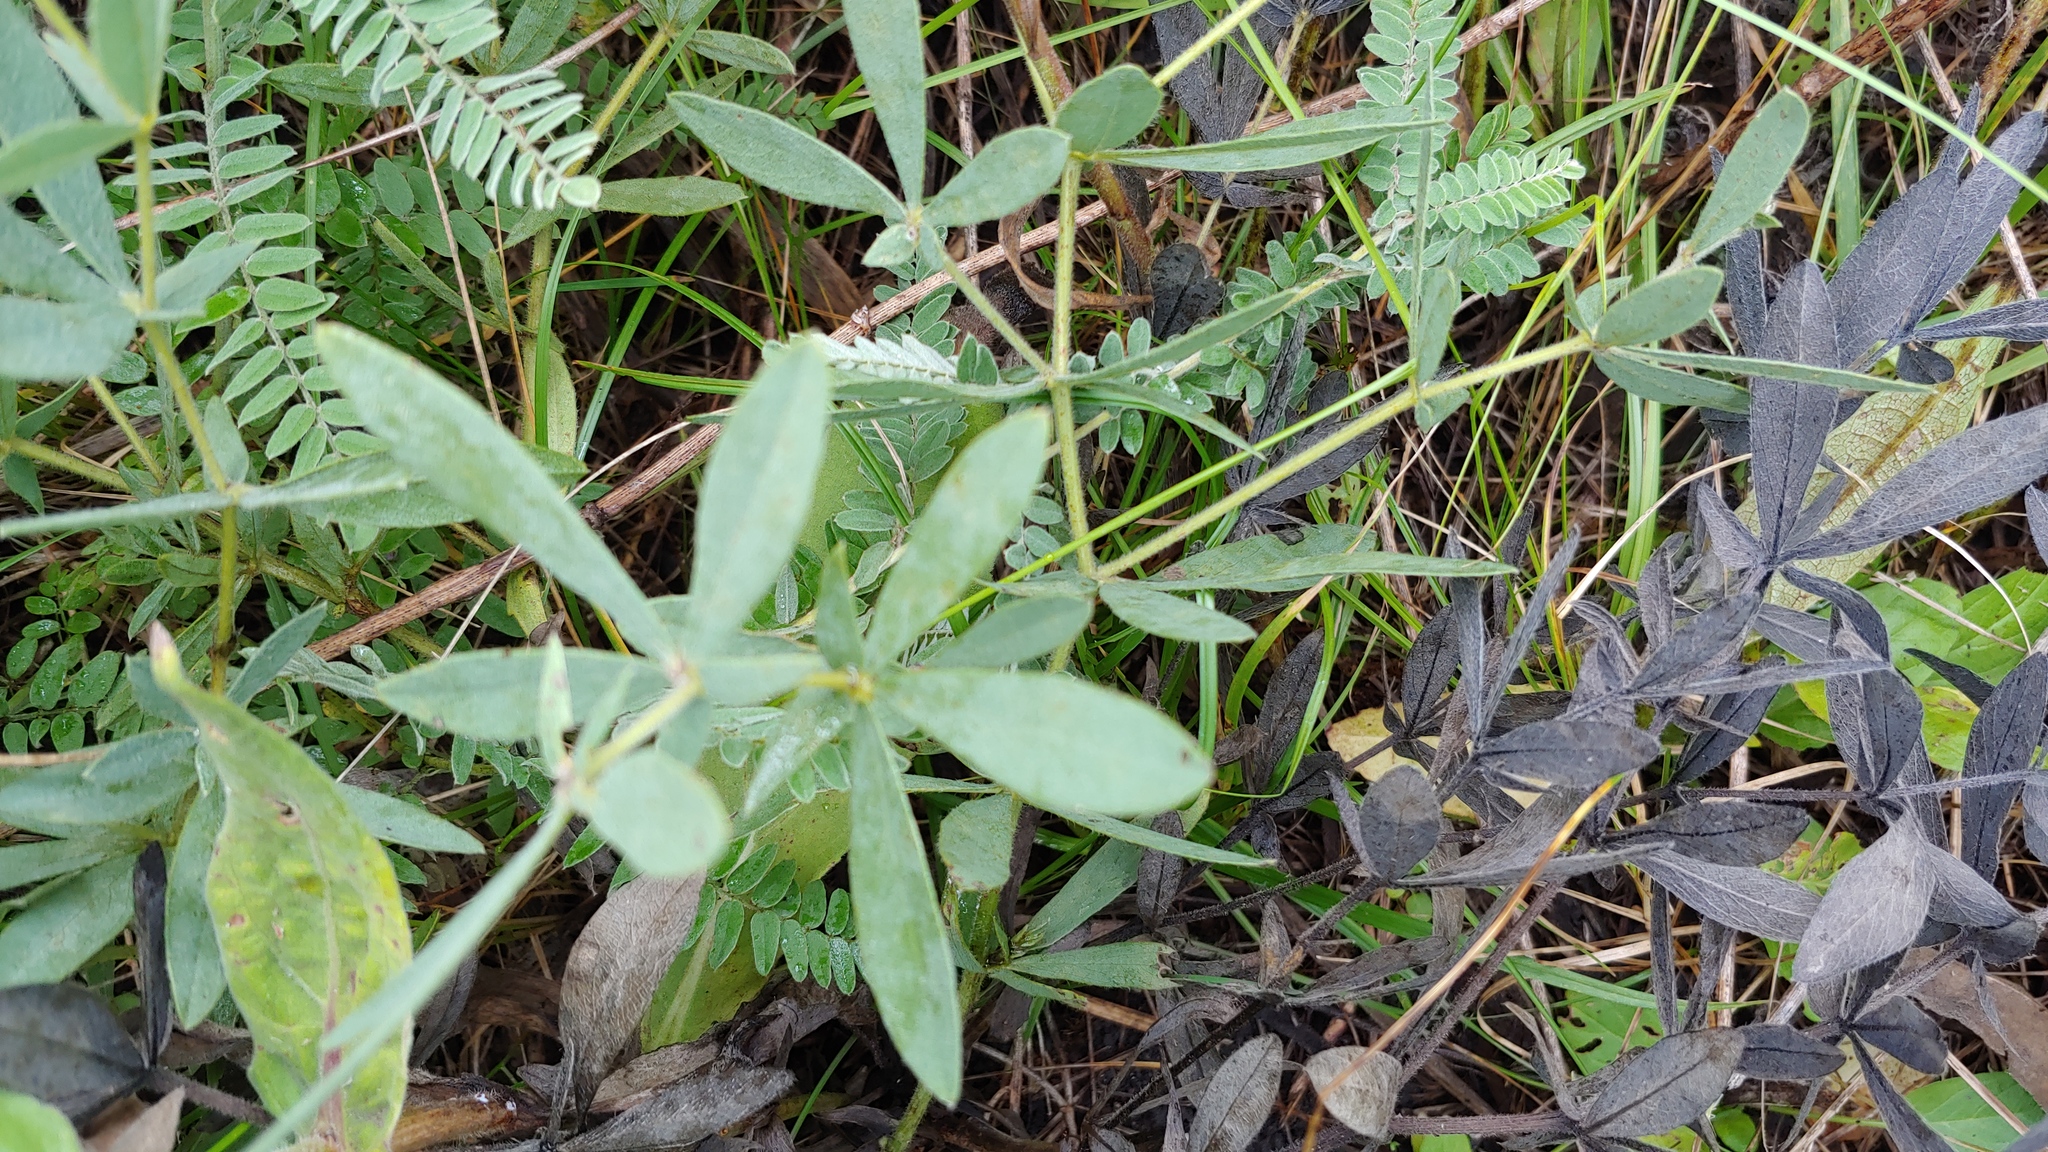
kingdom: Plantae
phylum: Tracheophyta
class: Magnoliopsida
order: Fabales
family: Fabaceae
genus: Baptisia
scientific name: Baptisia bracteata
